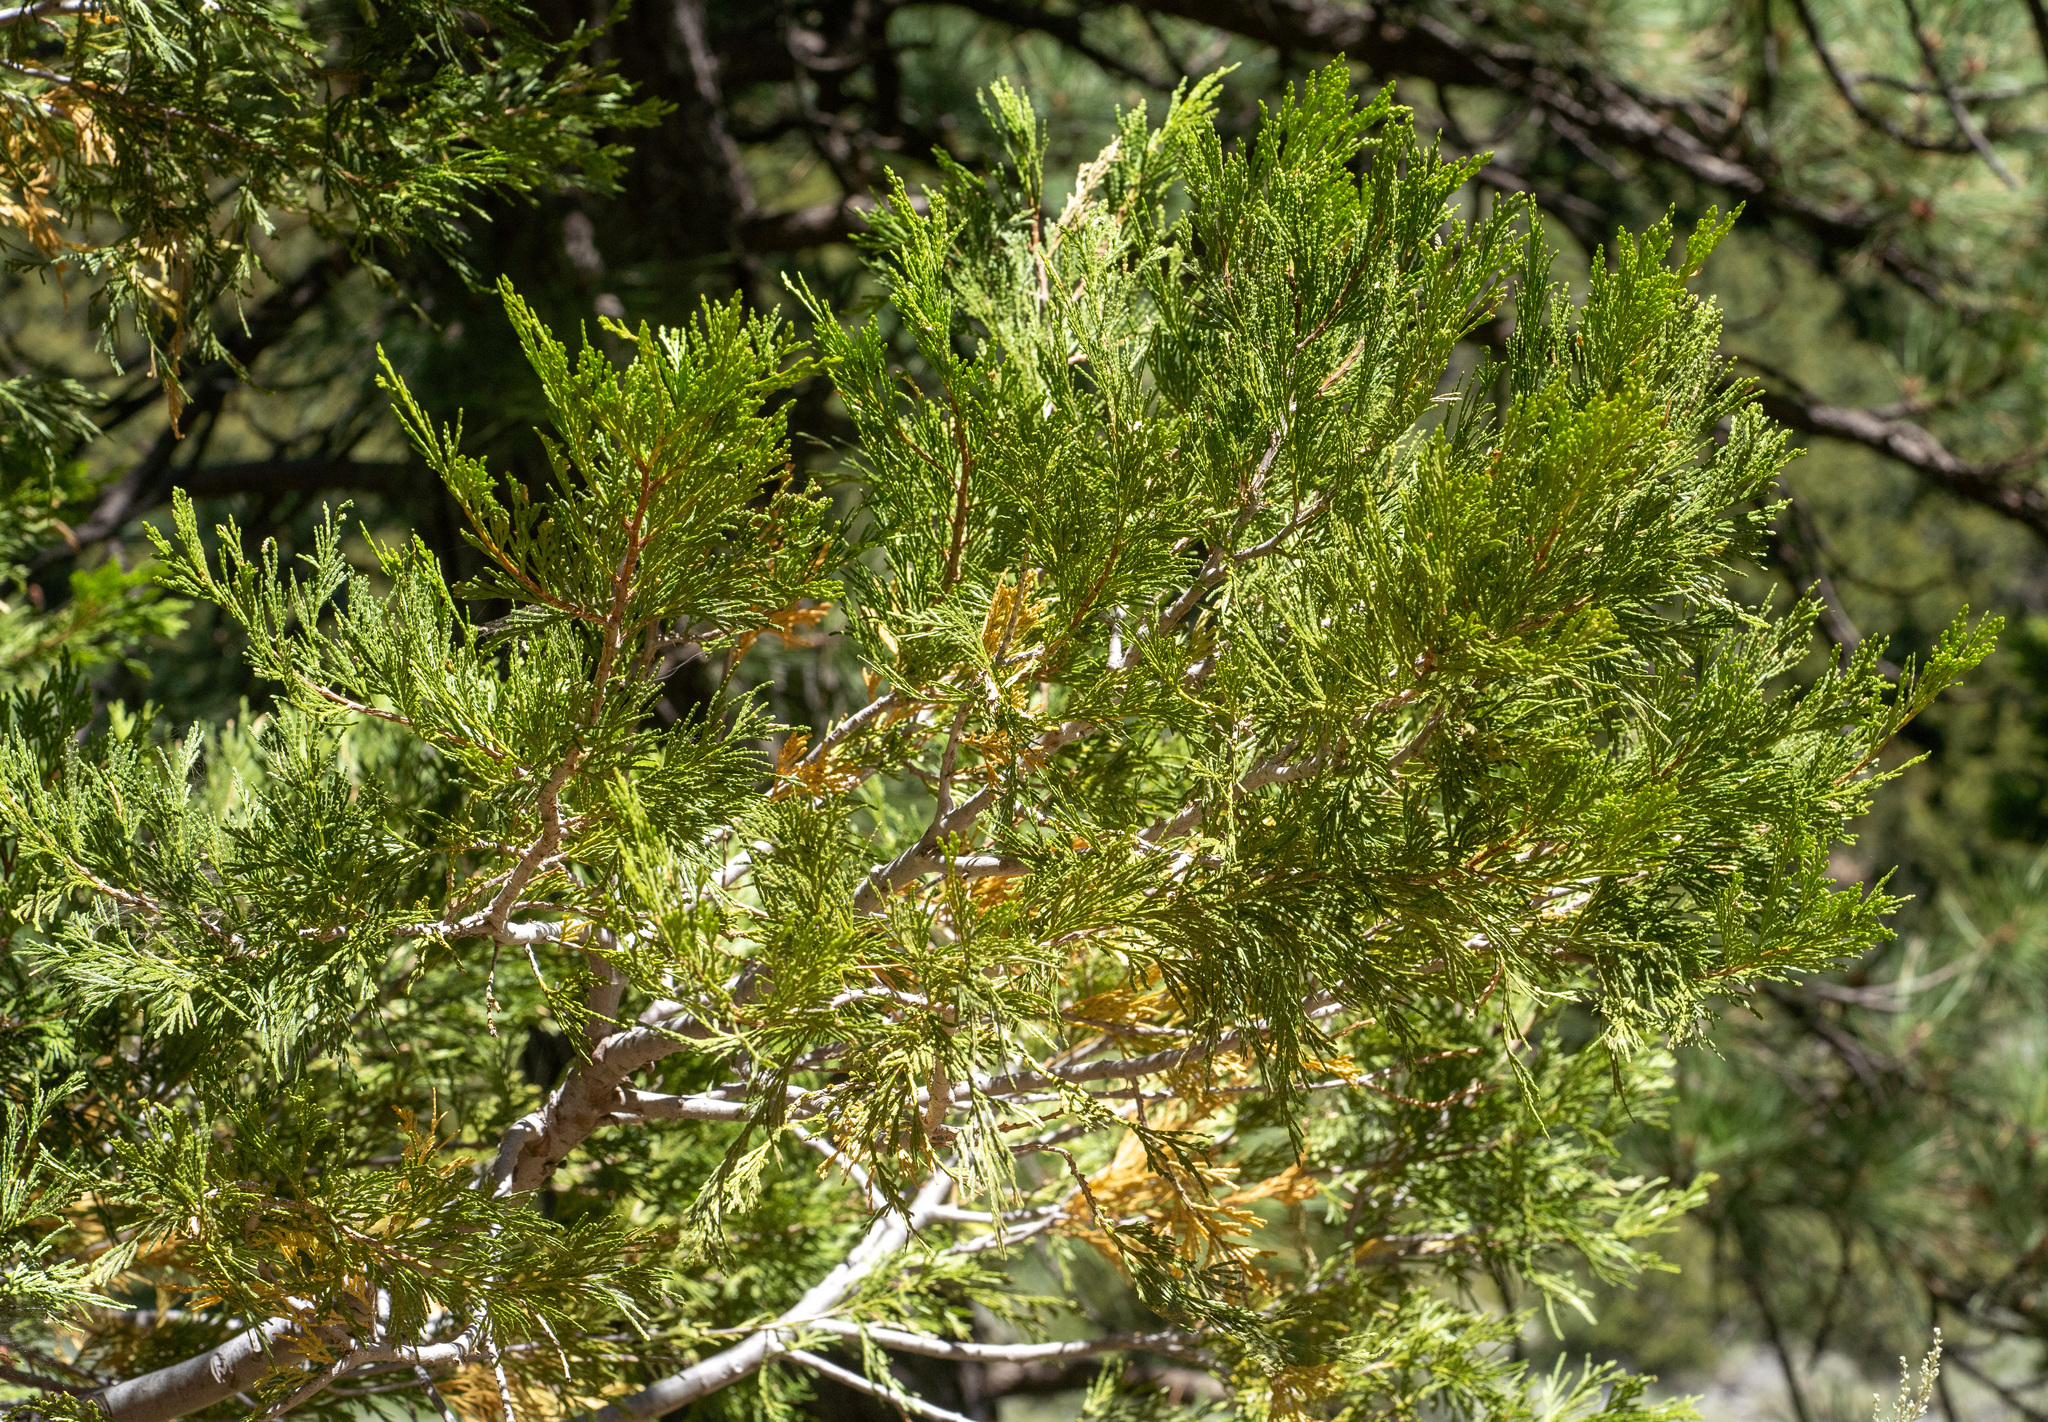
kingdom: Plantae
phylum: Tracheophyta
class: Pinopsida
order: Pinales
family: Cupressaceae
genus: Calocedrus
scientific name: Calocedrus decurrens
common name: Californian incense-cedar
